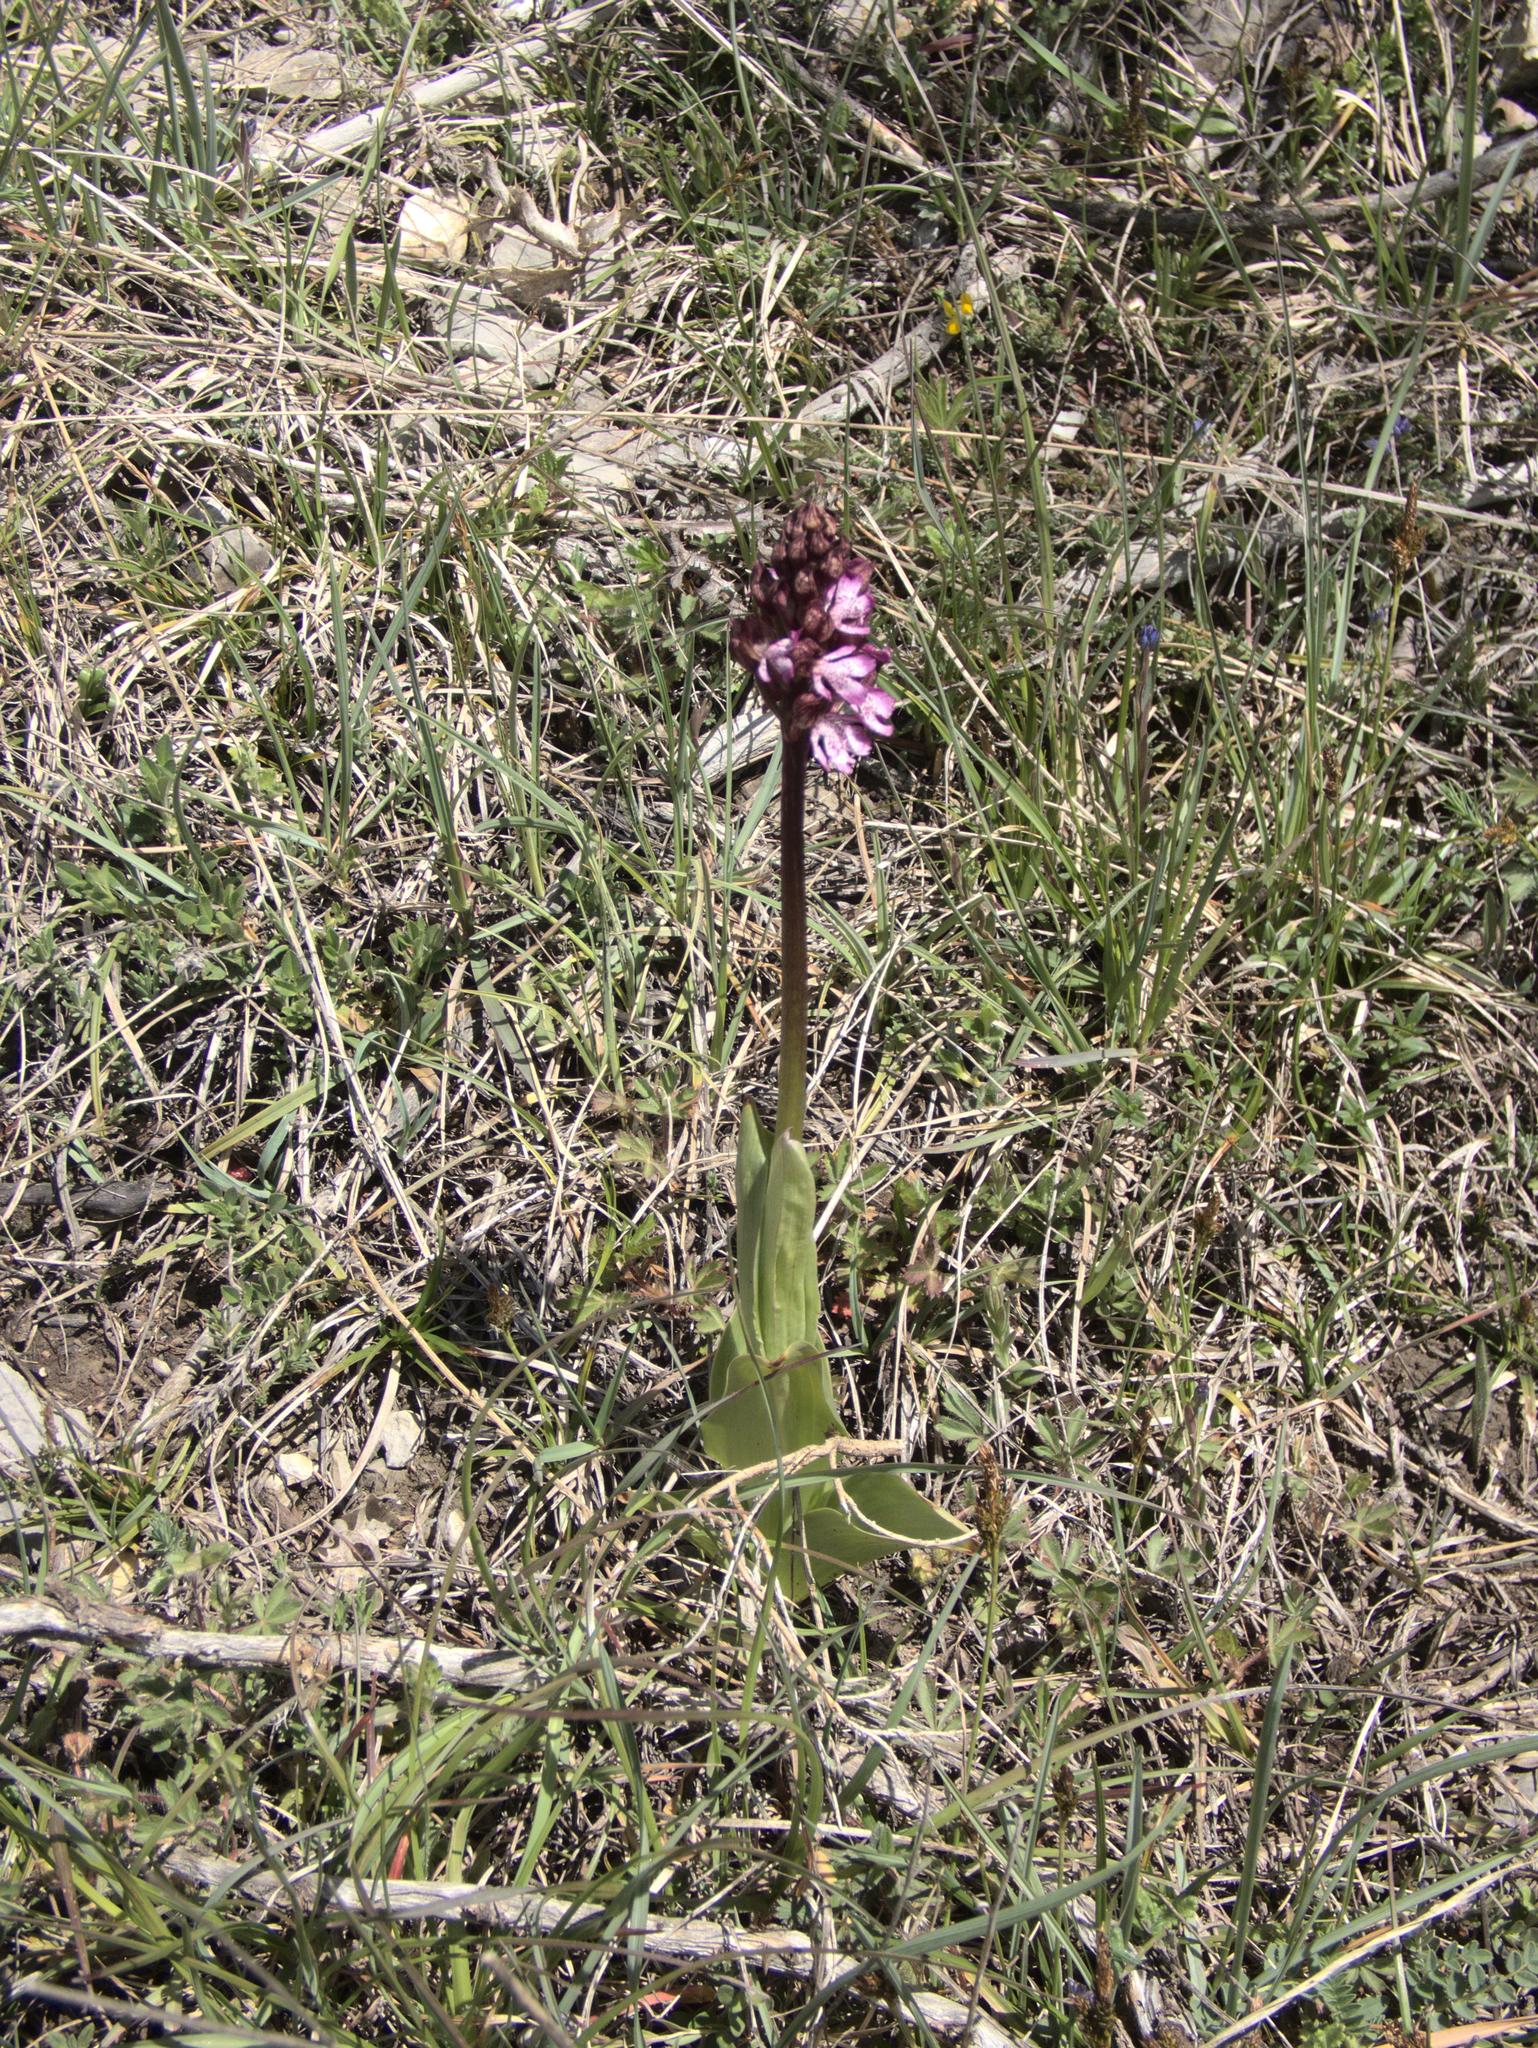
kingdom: Plantae
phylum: Tracheophyta
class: Liliopsida
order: Asparagales
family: Orchidaceae
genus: Orchis
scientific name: Orchis purpurea
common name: Lady orchid
